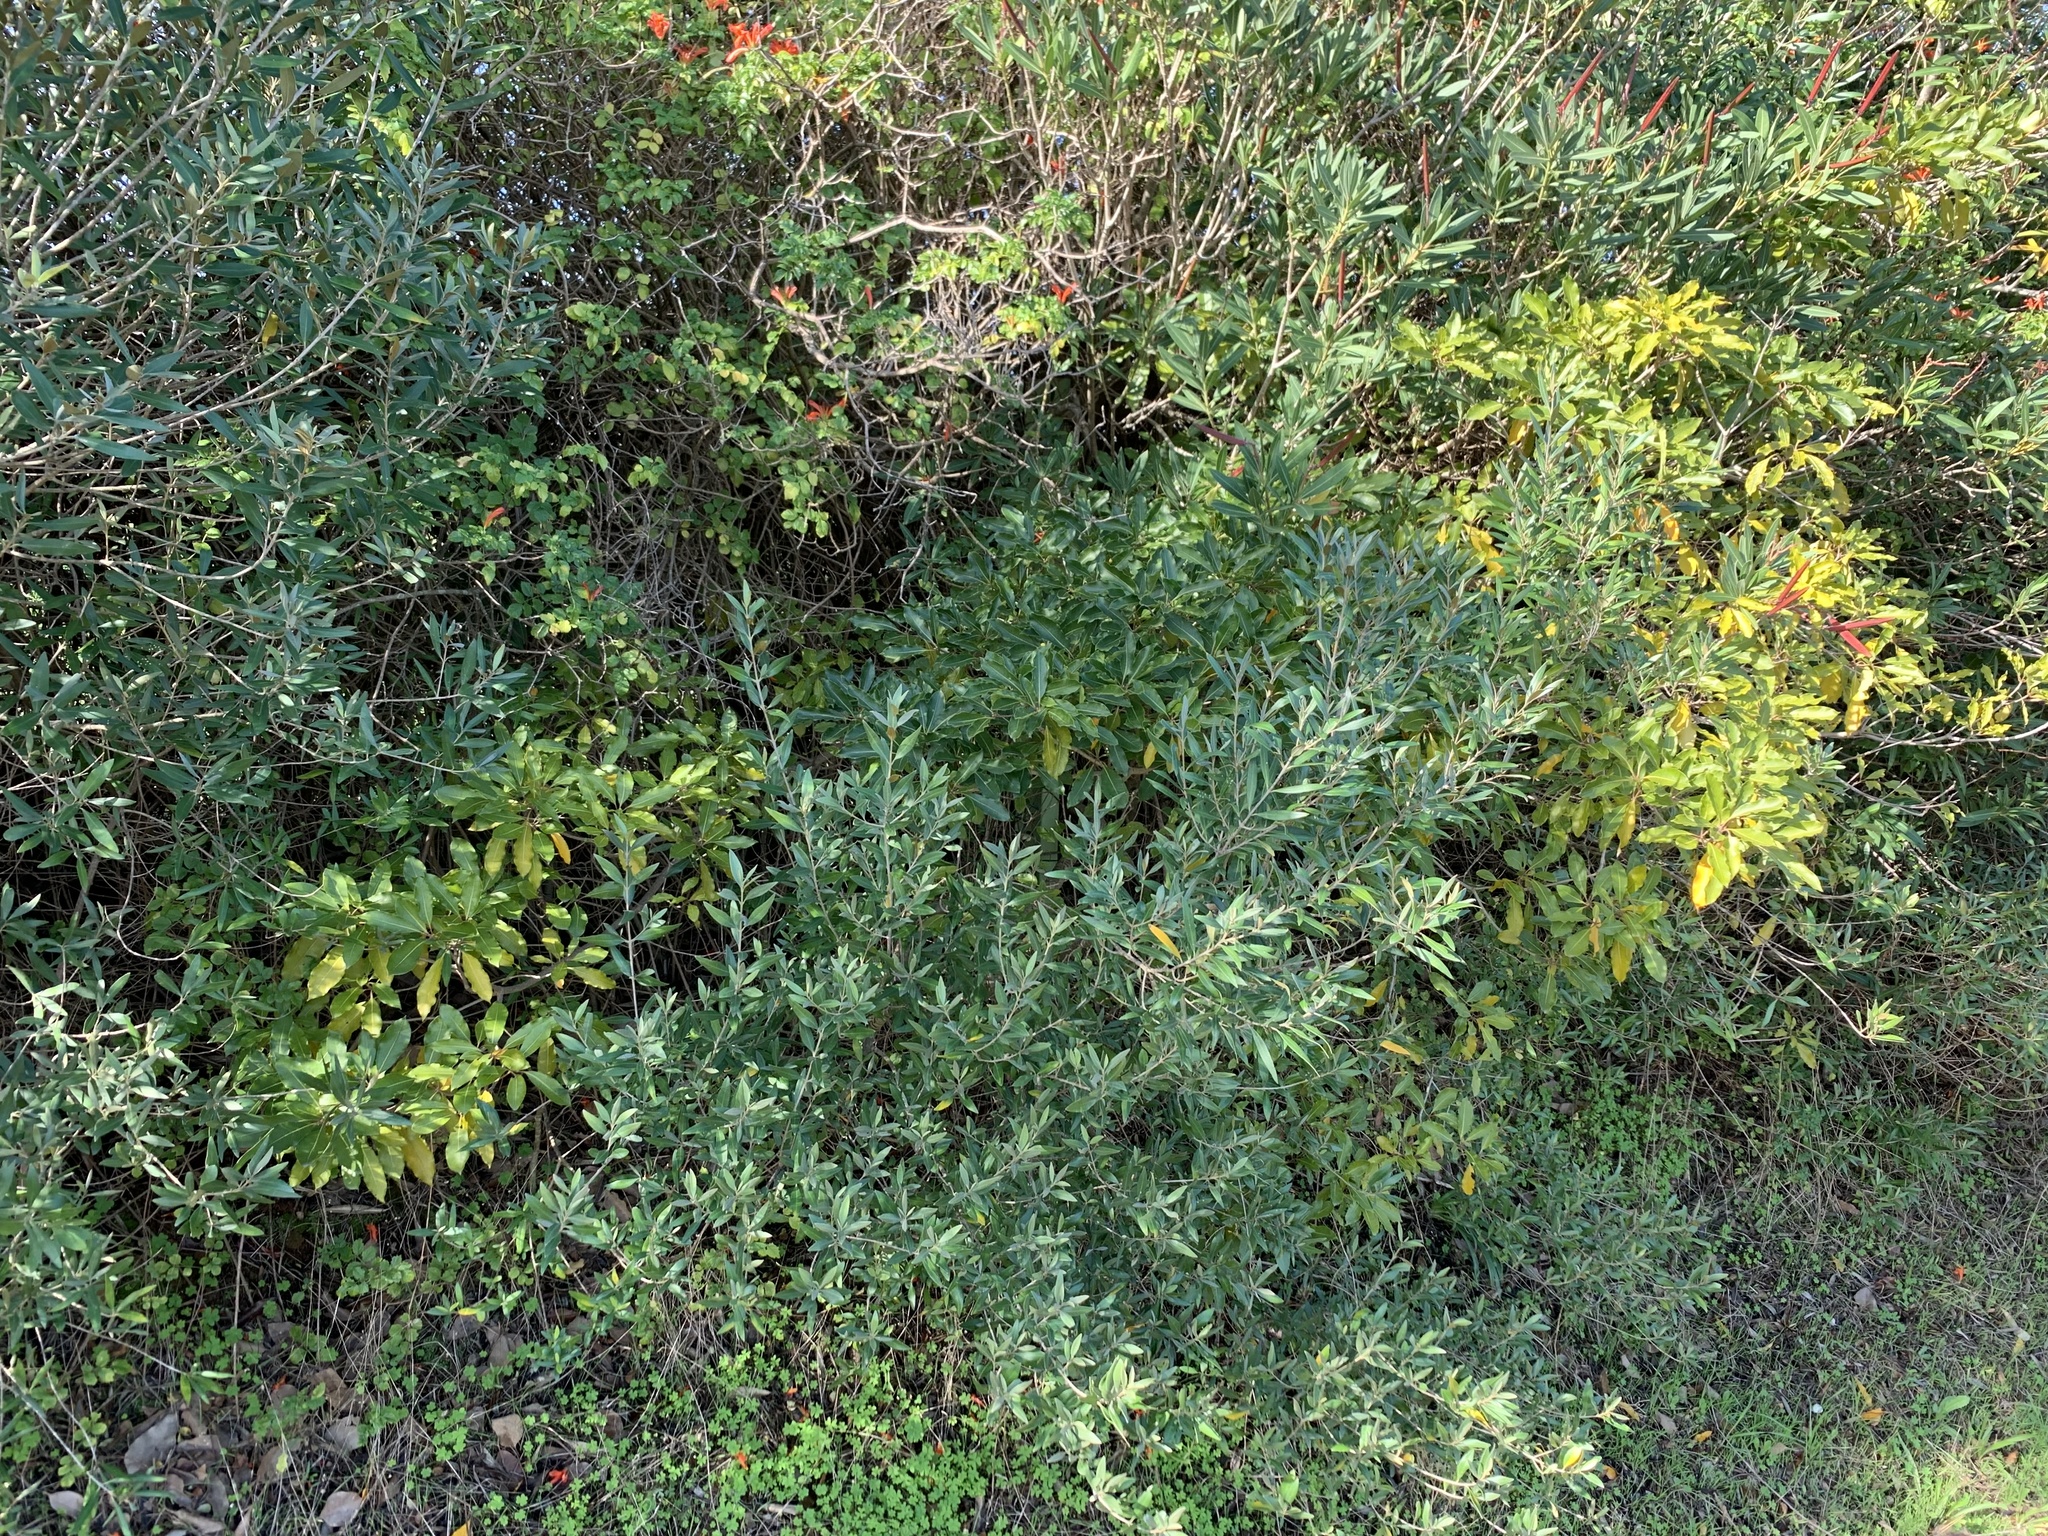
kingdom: Plantae
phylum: Tracheophyta
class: Magnoliopsida
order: Apiales
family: Pittosporaceae
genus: Pittosporum
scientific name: Pittosporum undulatum
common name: Australian cheesewood
